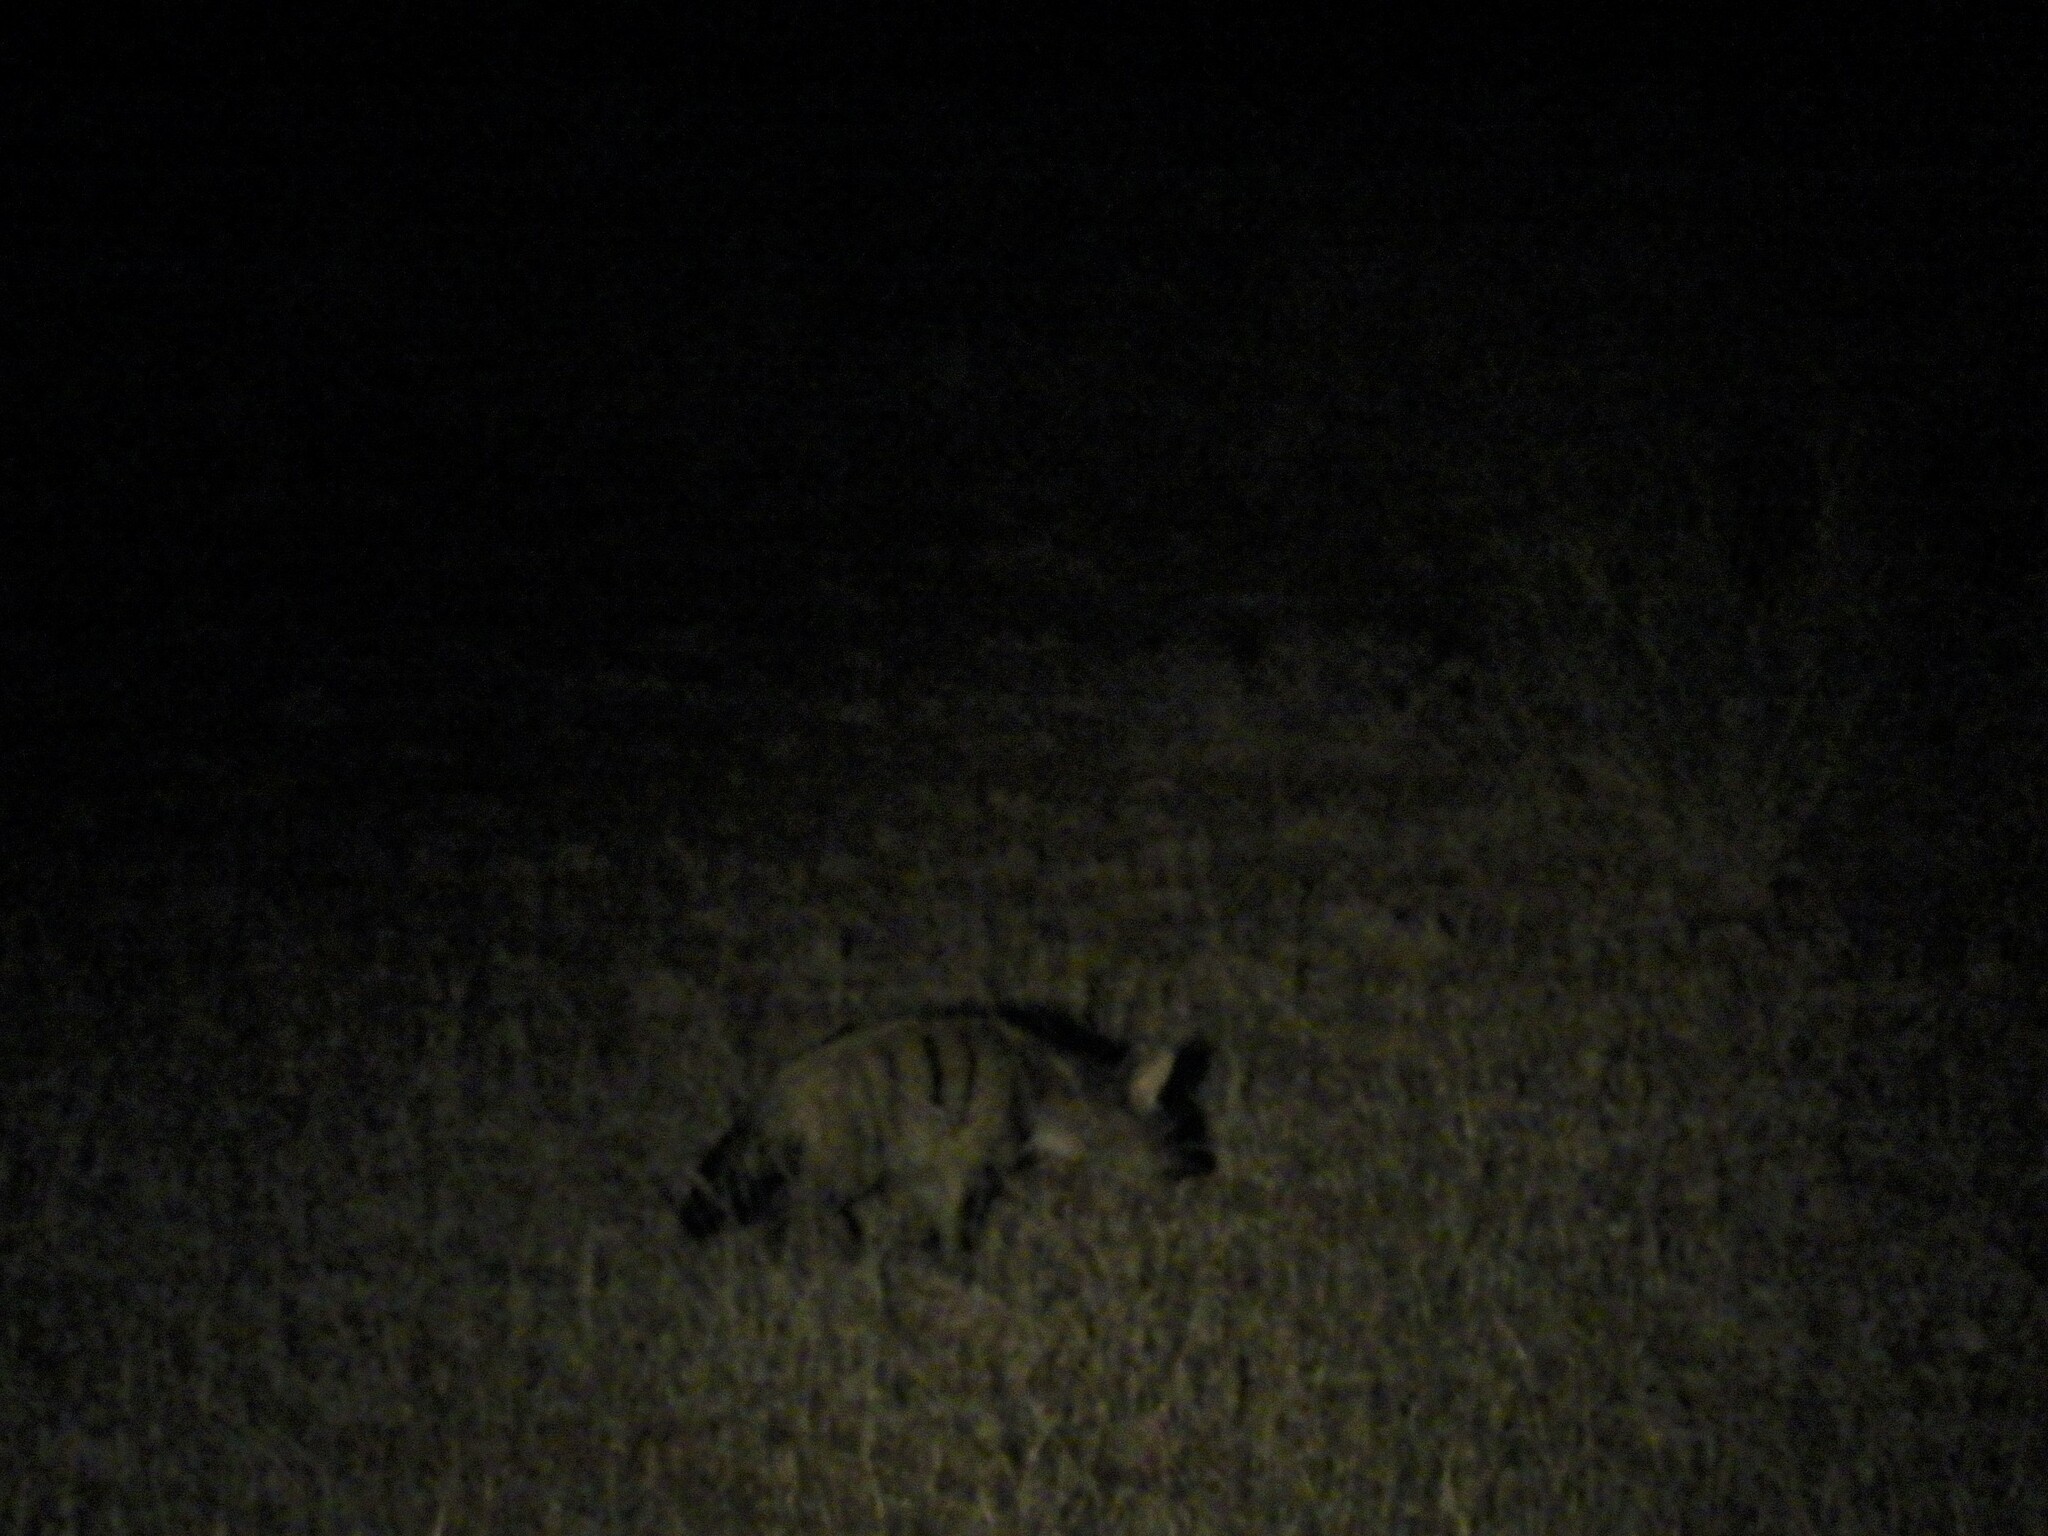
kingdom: Animalia
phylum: Chordata
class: Mammalia
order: Carnivora
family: Hyaenidae
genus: Proteles
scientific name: Proteles cristata
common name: Aardwolf
